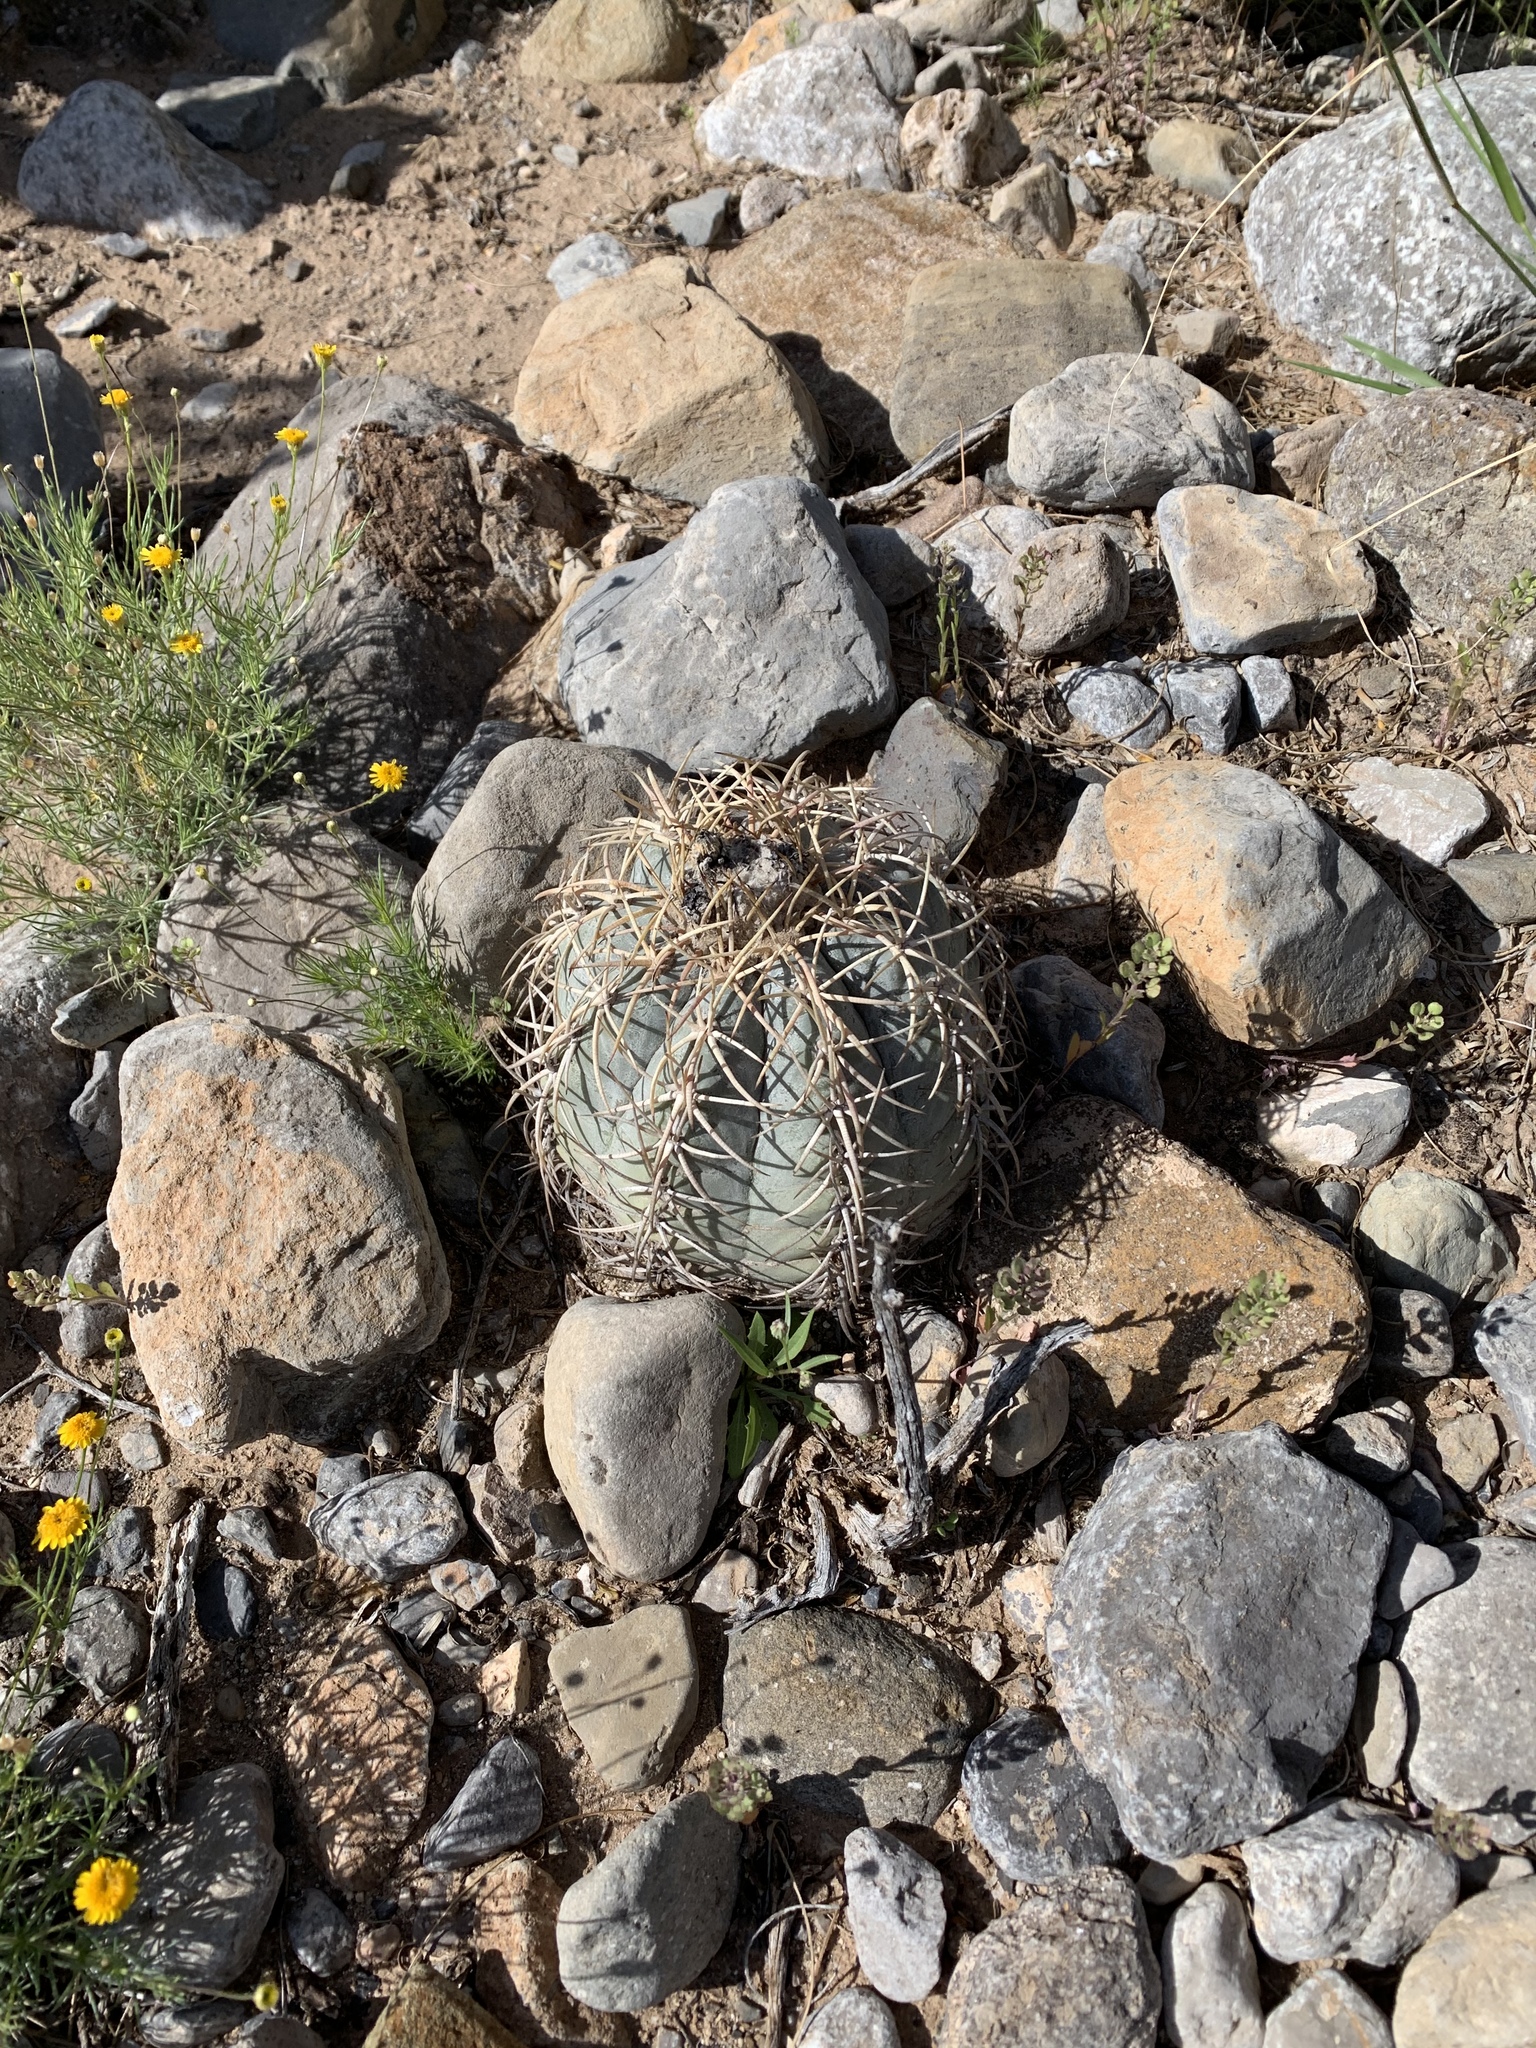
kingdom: Plantae
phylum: Tracheophyta
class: Magnoliopsida
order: Caryophyllales
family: Cactaceae
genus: Echinocactus
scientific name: Echinocactus horizonthalonius
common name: Devilshead
